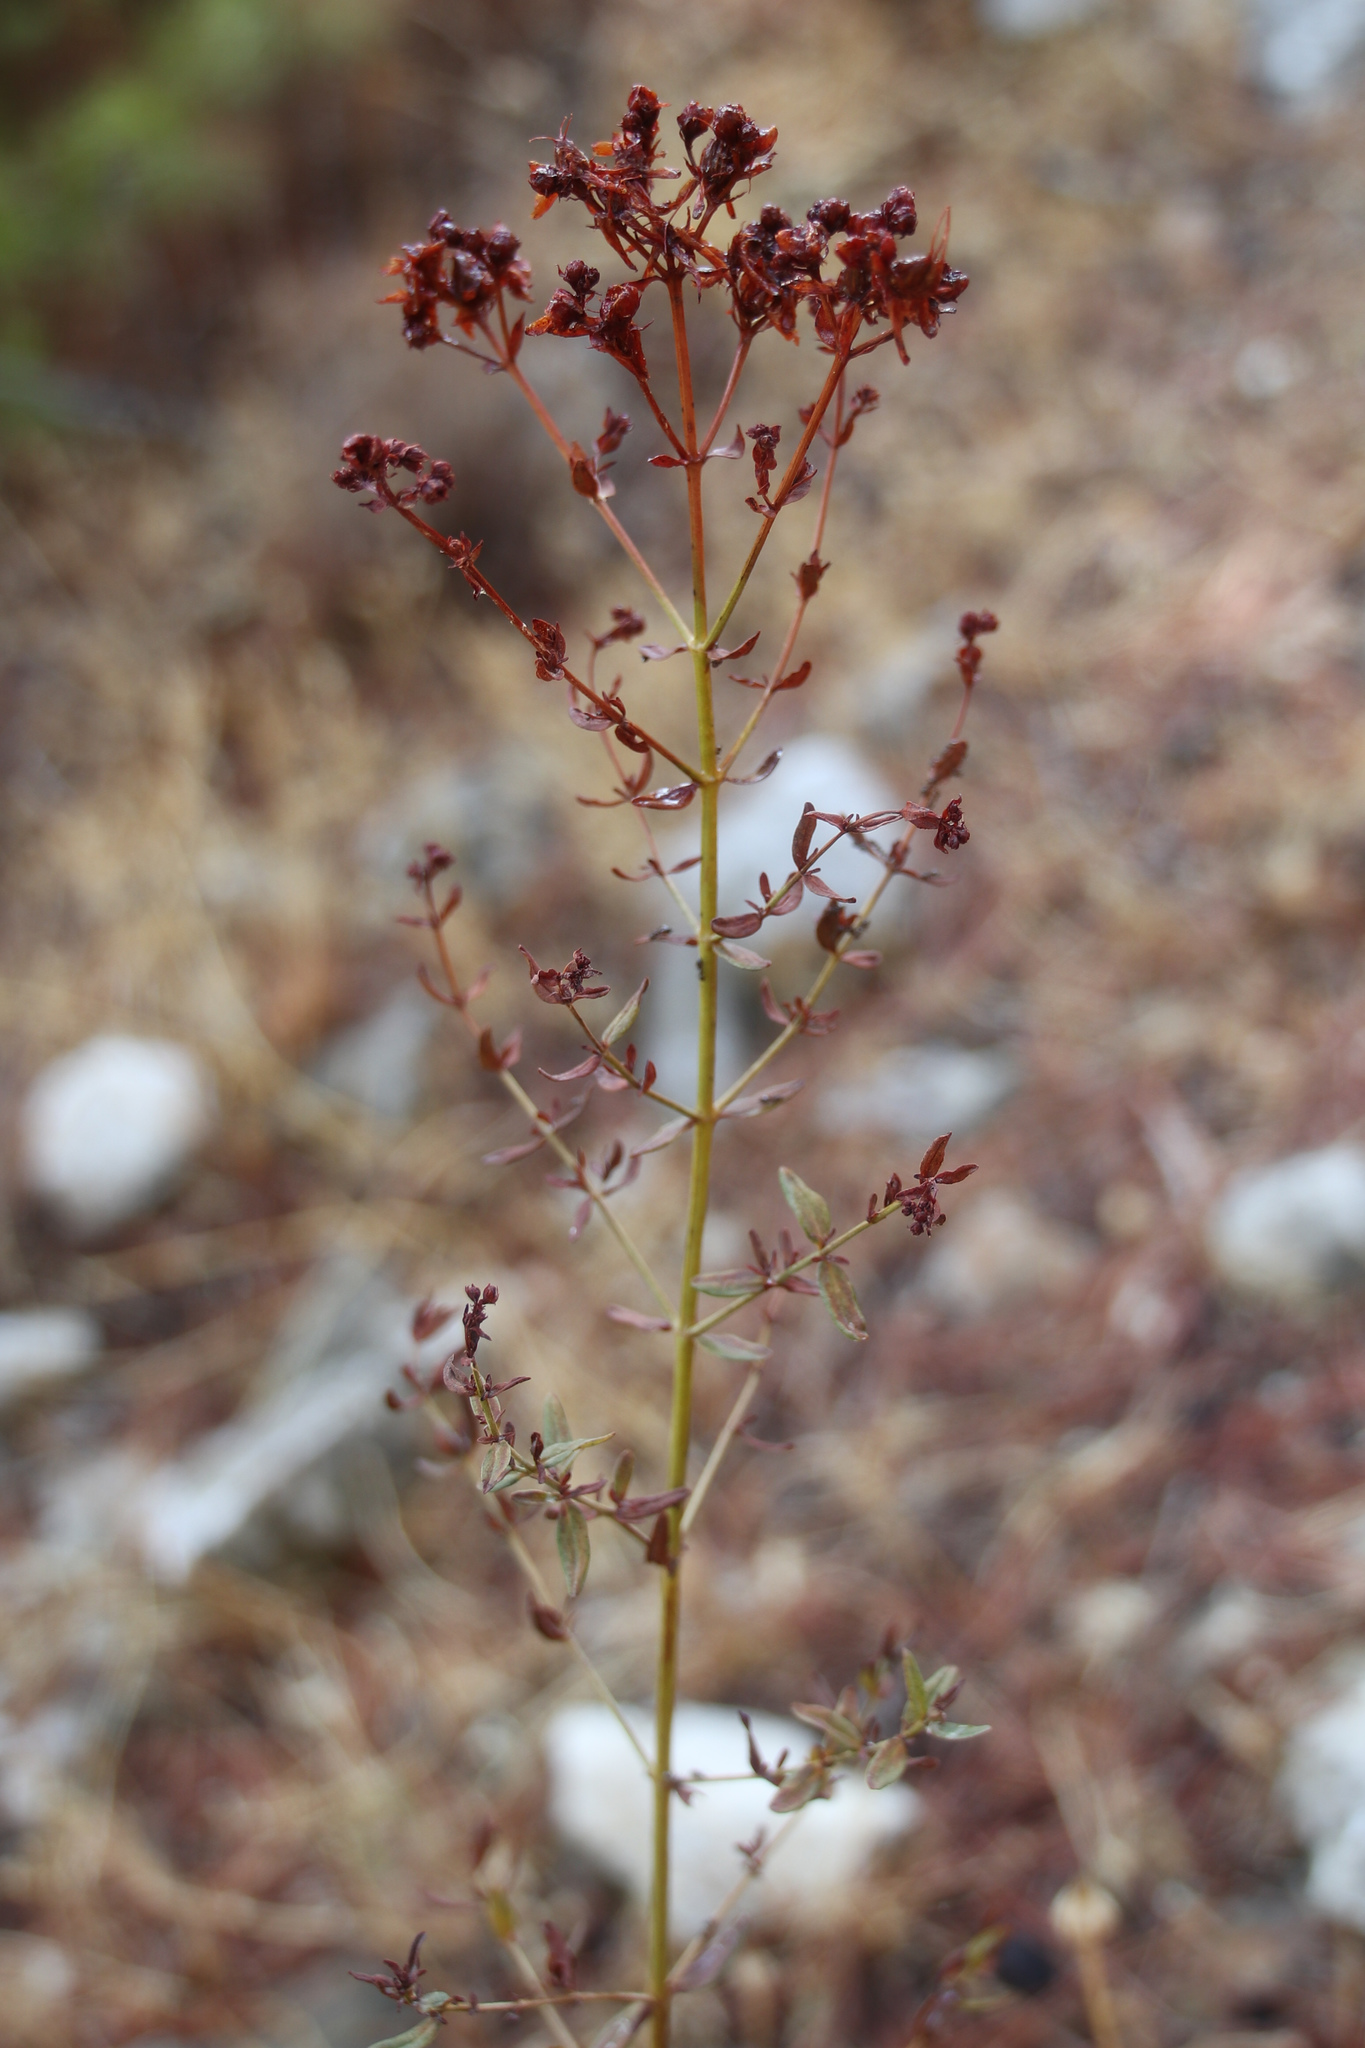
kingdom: Plantae
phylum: Tracheophyta
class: Magnoliopsida
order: Malpighiales
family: Hypericaceae
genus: Hypericum
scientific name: Hypericum perforatum
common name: Common st. johnswort
